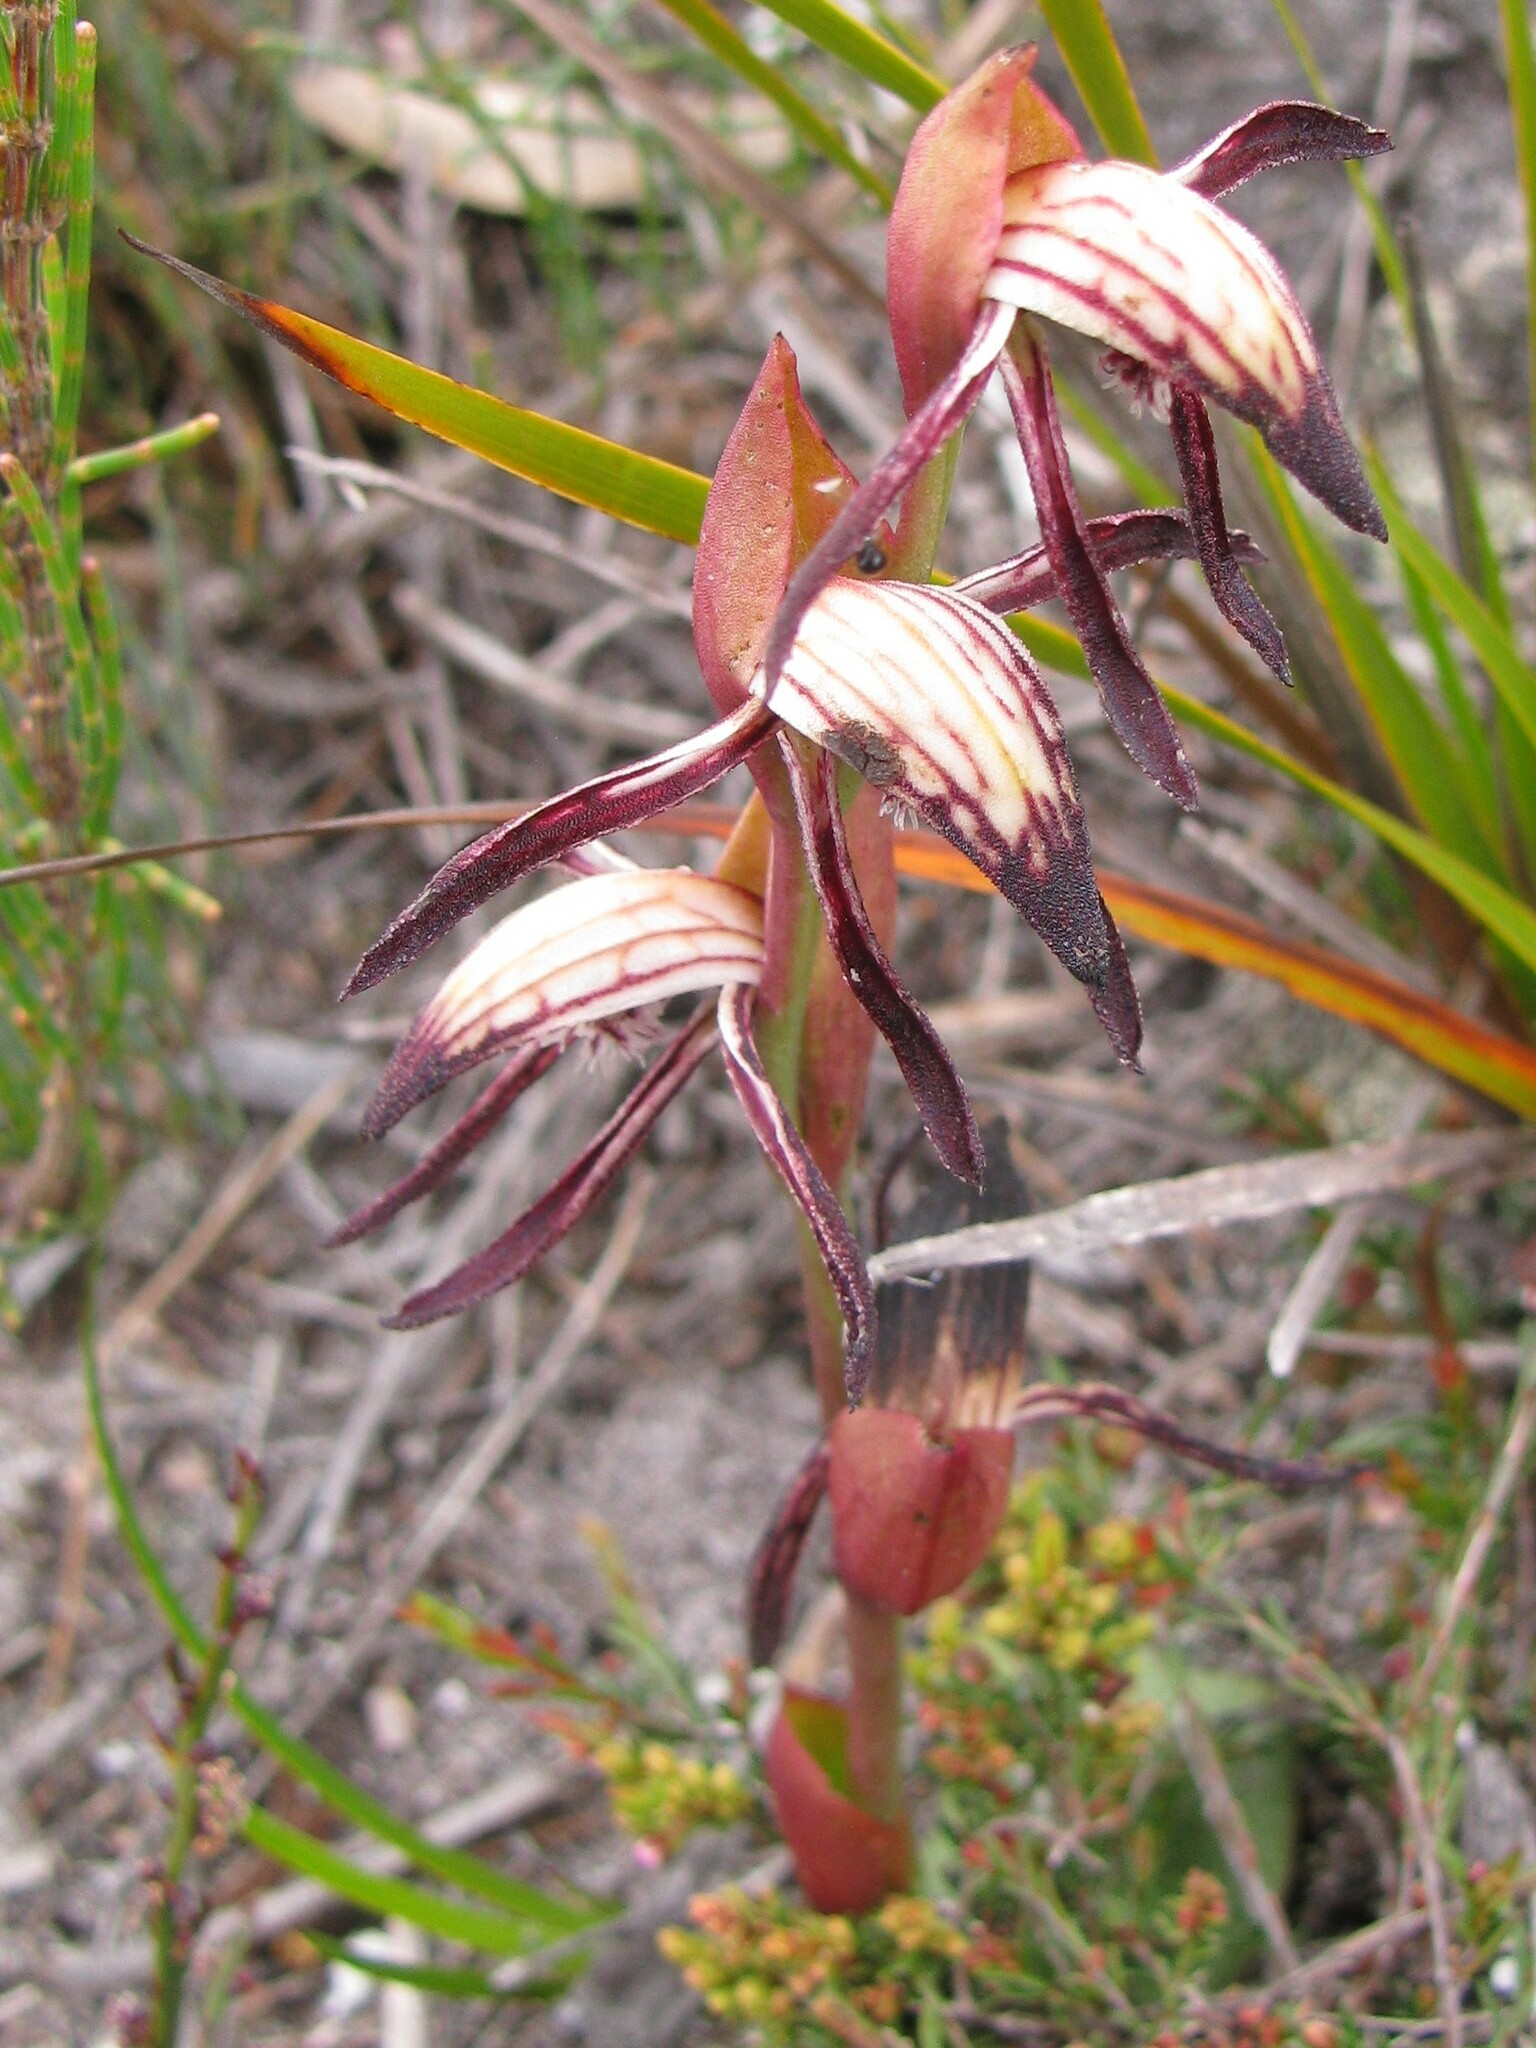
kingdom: Plantae
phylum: Tracheophyta
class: Liliopsida
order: Asparagales
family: Orchidaceae
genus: Pyrorchis
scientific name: Pyrorchis nigricans
